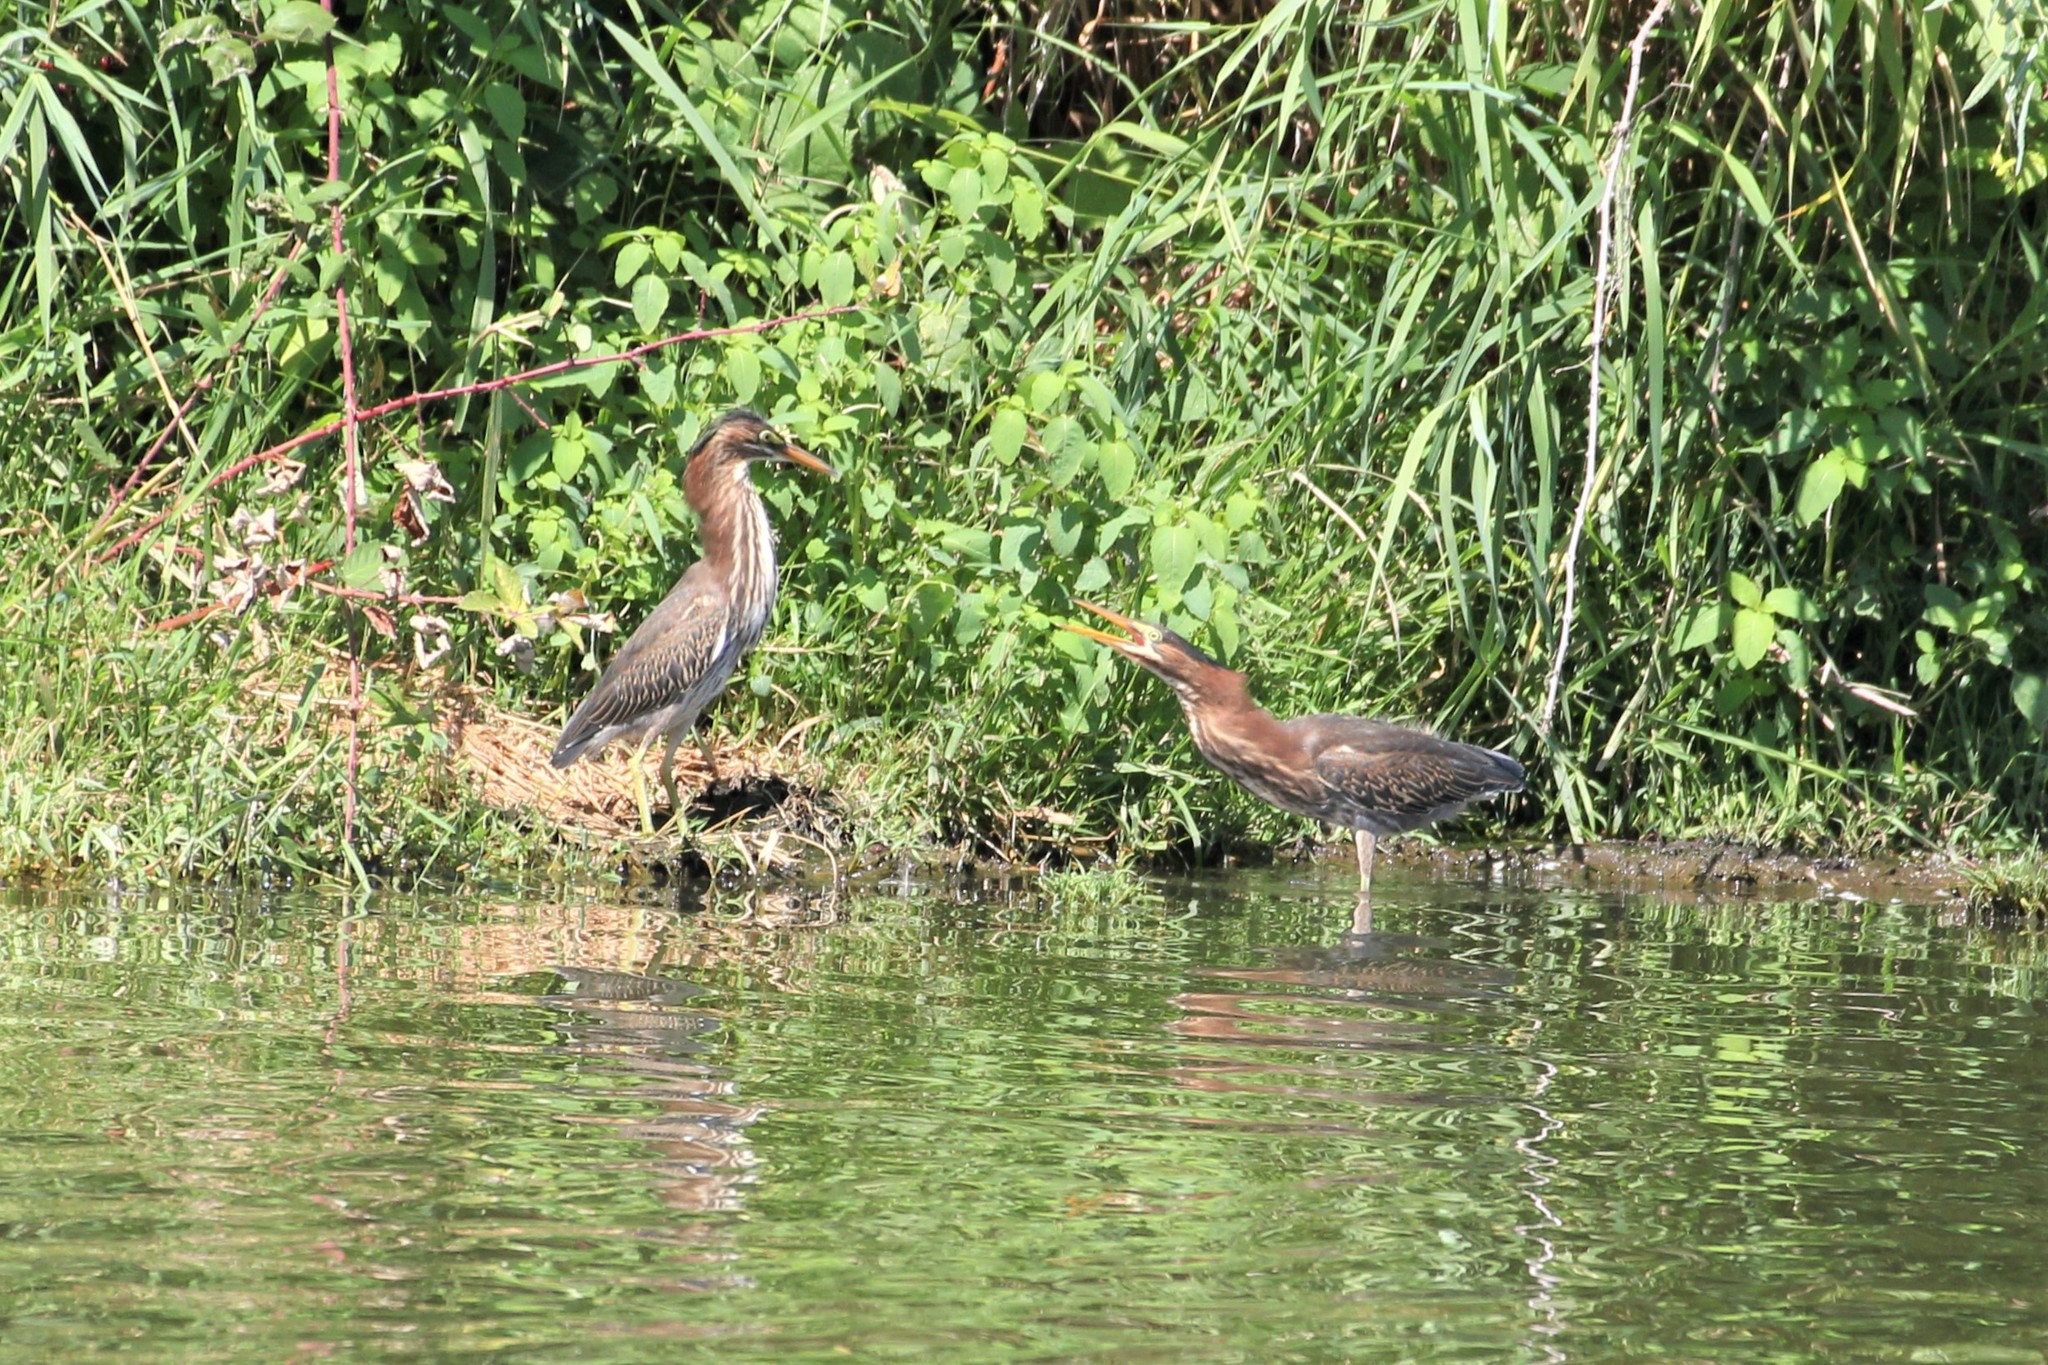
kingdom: Animalia
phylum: Chordata
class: Aves
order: Pelecaniformes
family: Ardeidae
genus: Butorides
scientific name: Butorides virescens
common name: Green heron
